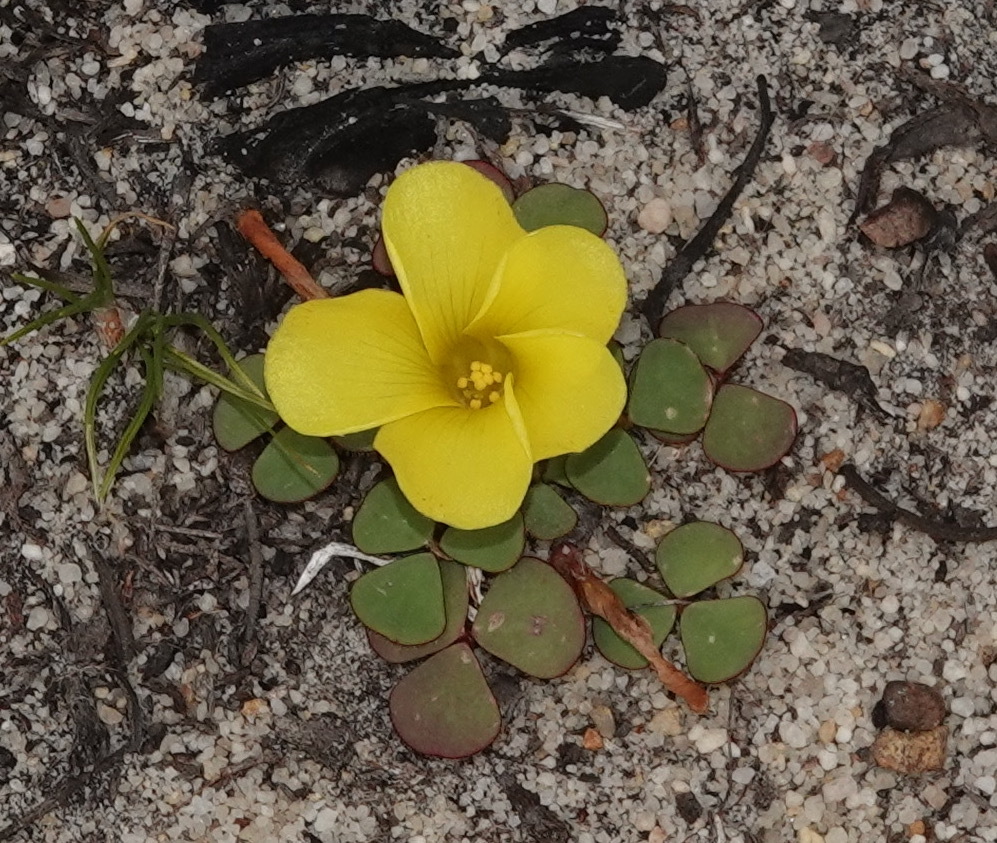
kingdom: Plantae
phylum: Tracheophyta
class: Magnoliopsida
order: Oxalidales
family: Oxalidaceae
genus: Oxalis
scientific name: Oxalis luteola
